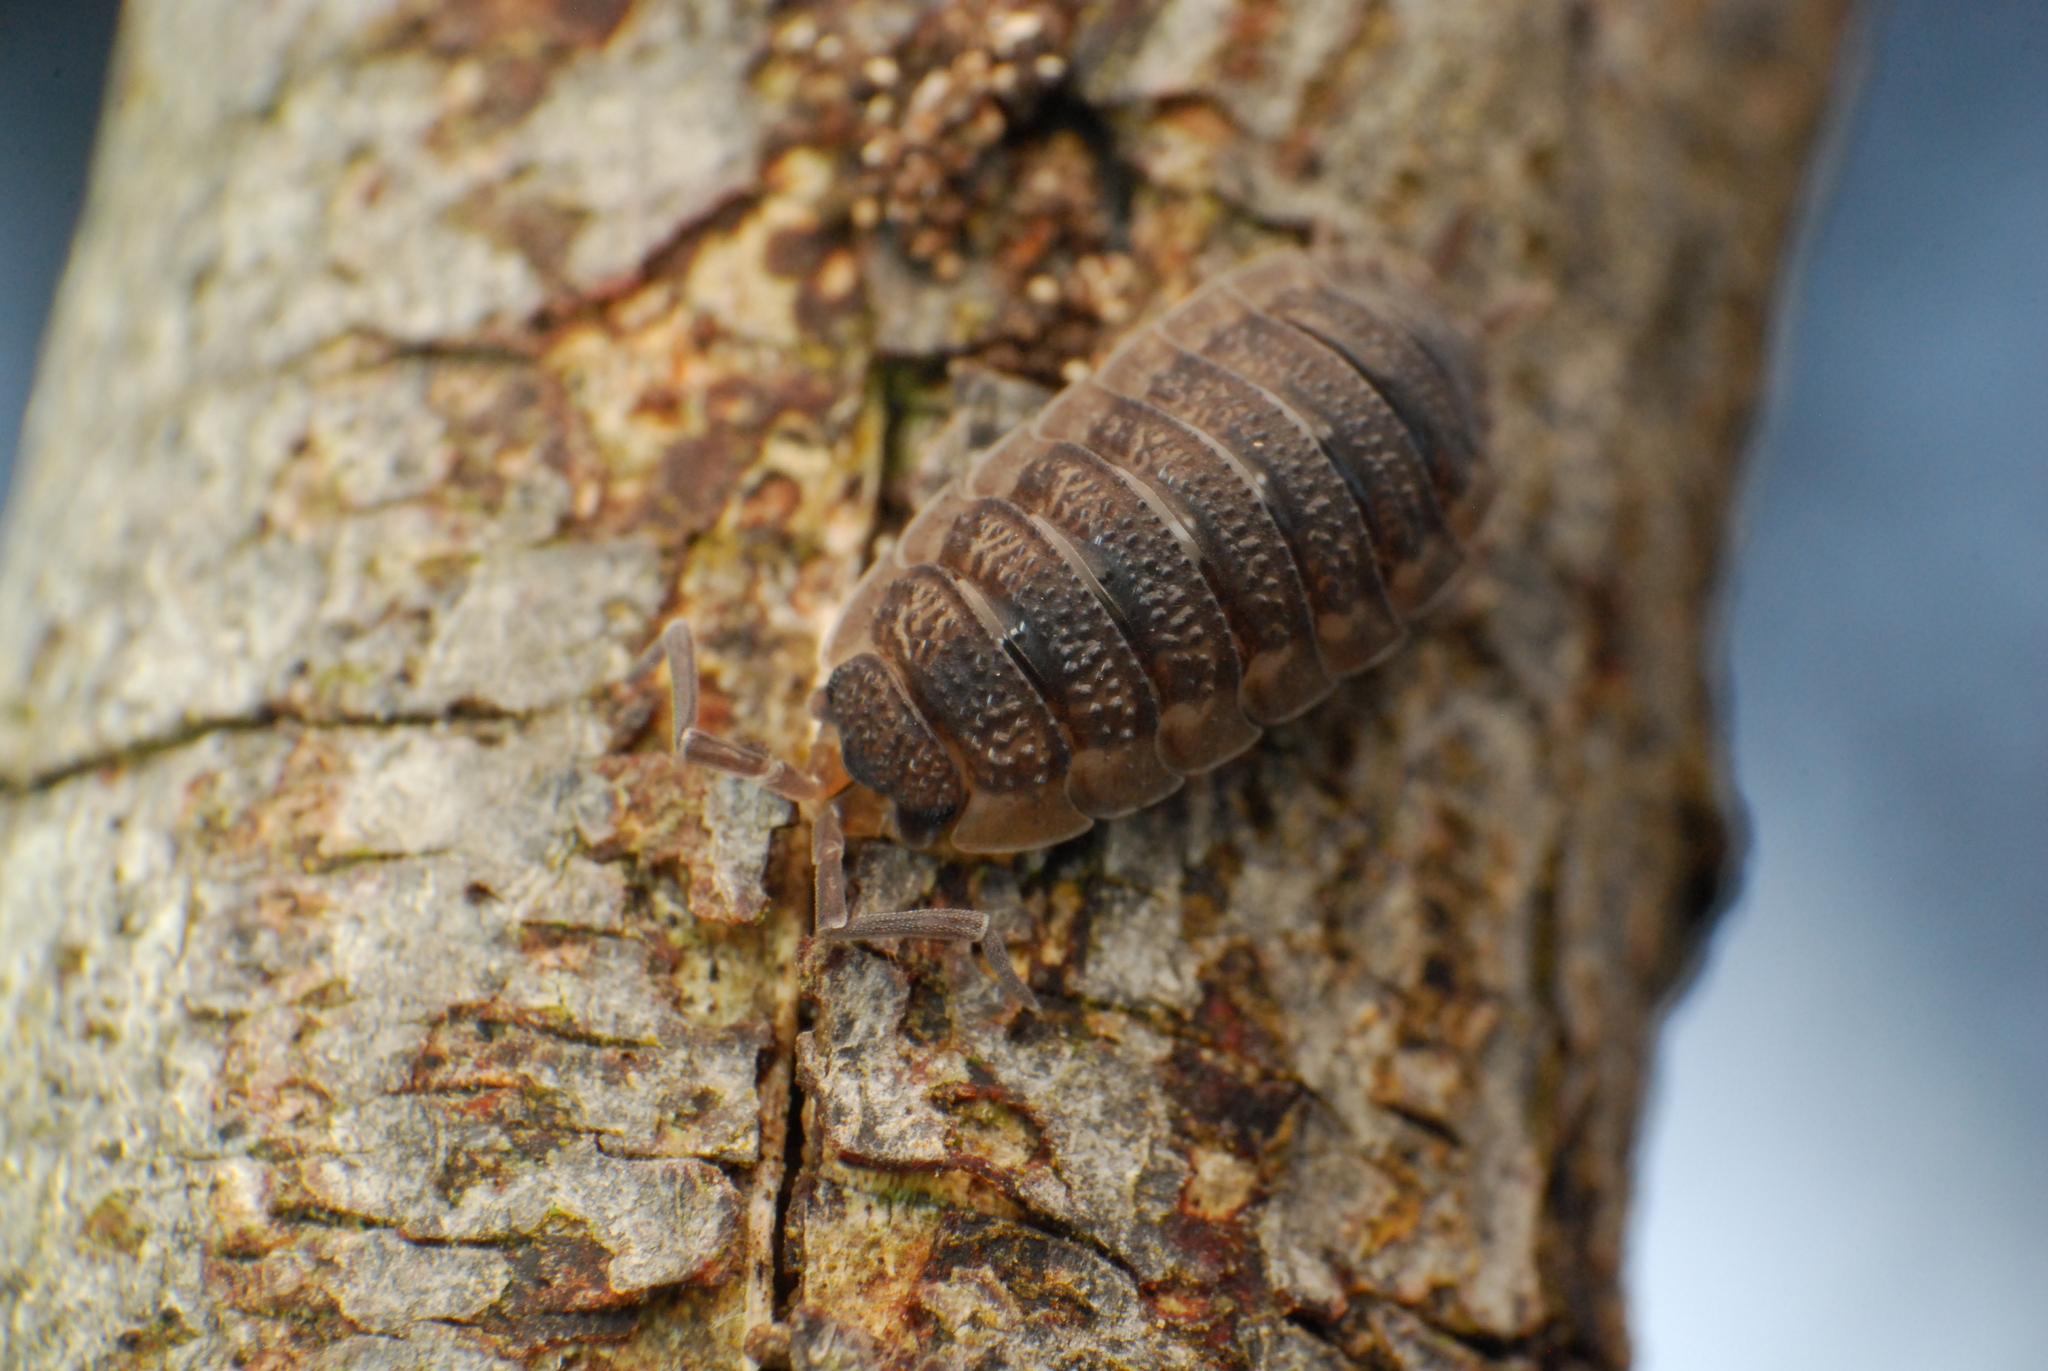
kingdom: Animalia
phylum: Arthropoda
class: Malacostraca
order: Isopoda
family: Porcellionidae
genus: Porcellio
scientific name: Porcellio scaber
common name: Common rough woodlouse
